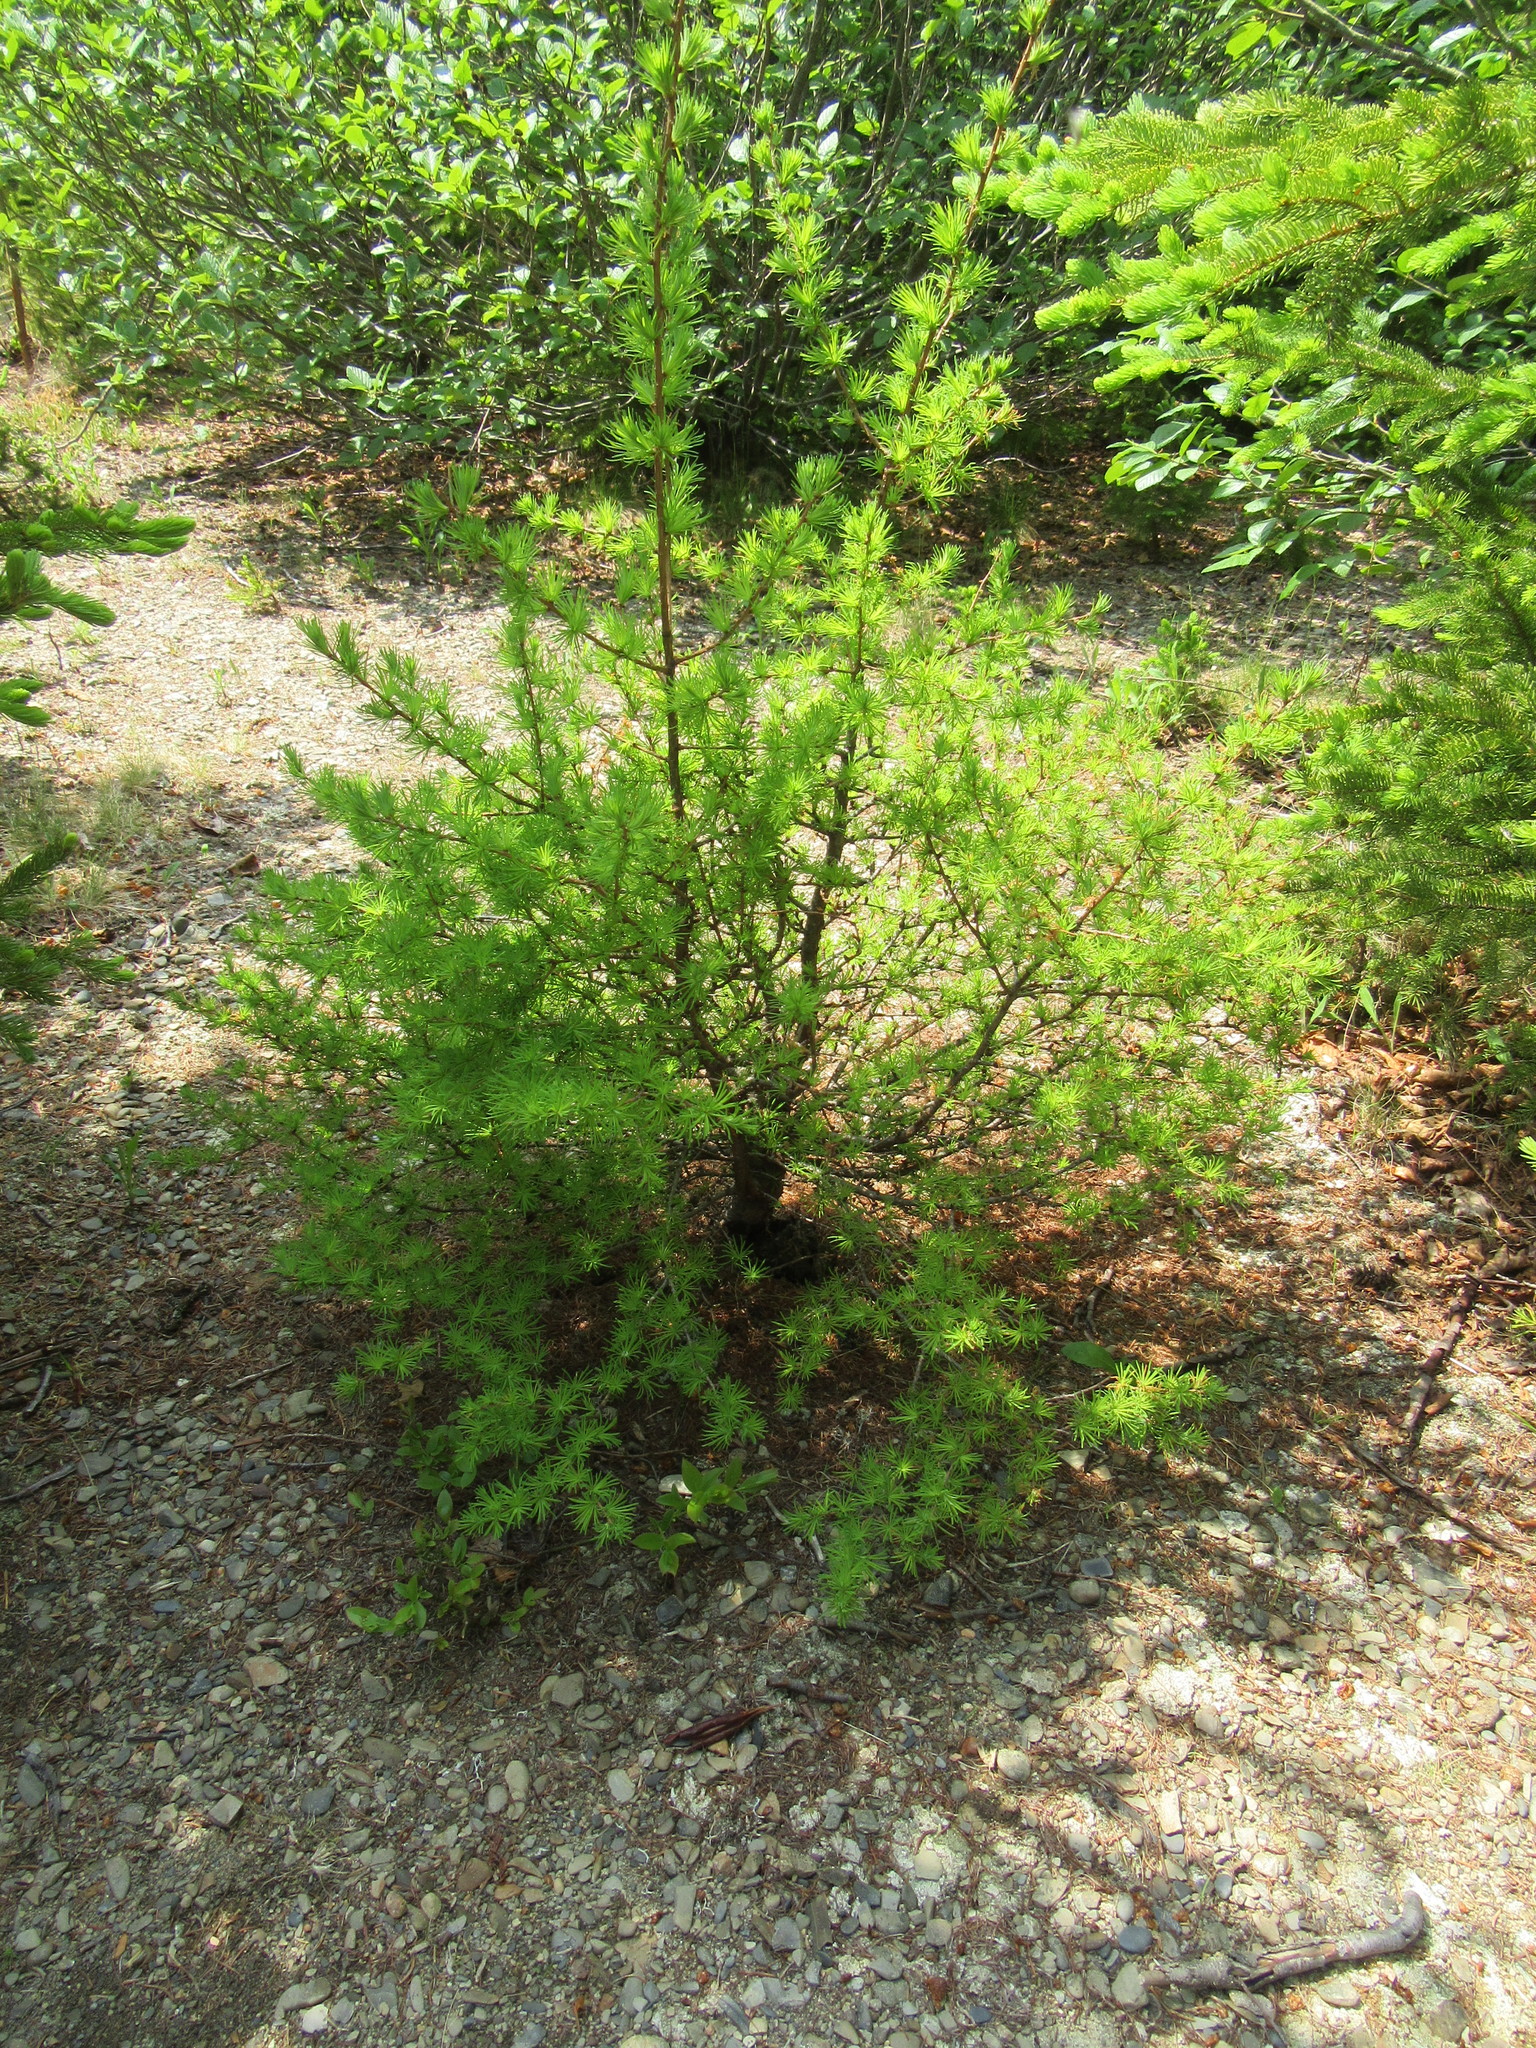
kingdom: Plantae
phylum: Tracheophyta
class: Pinopsida
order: Pinales
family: Pinaceae
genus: Larix
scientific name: Larix laricina
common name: American larch
